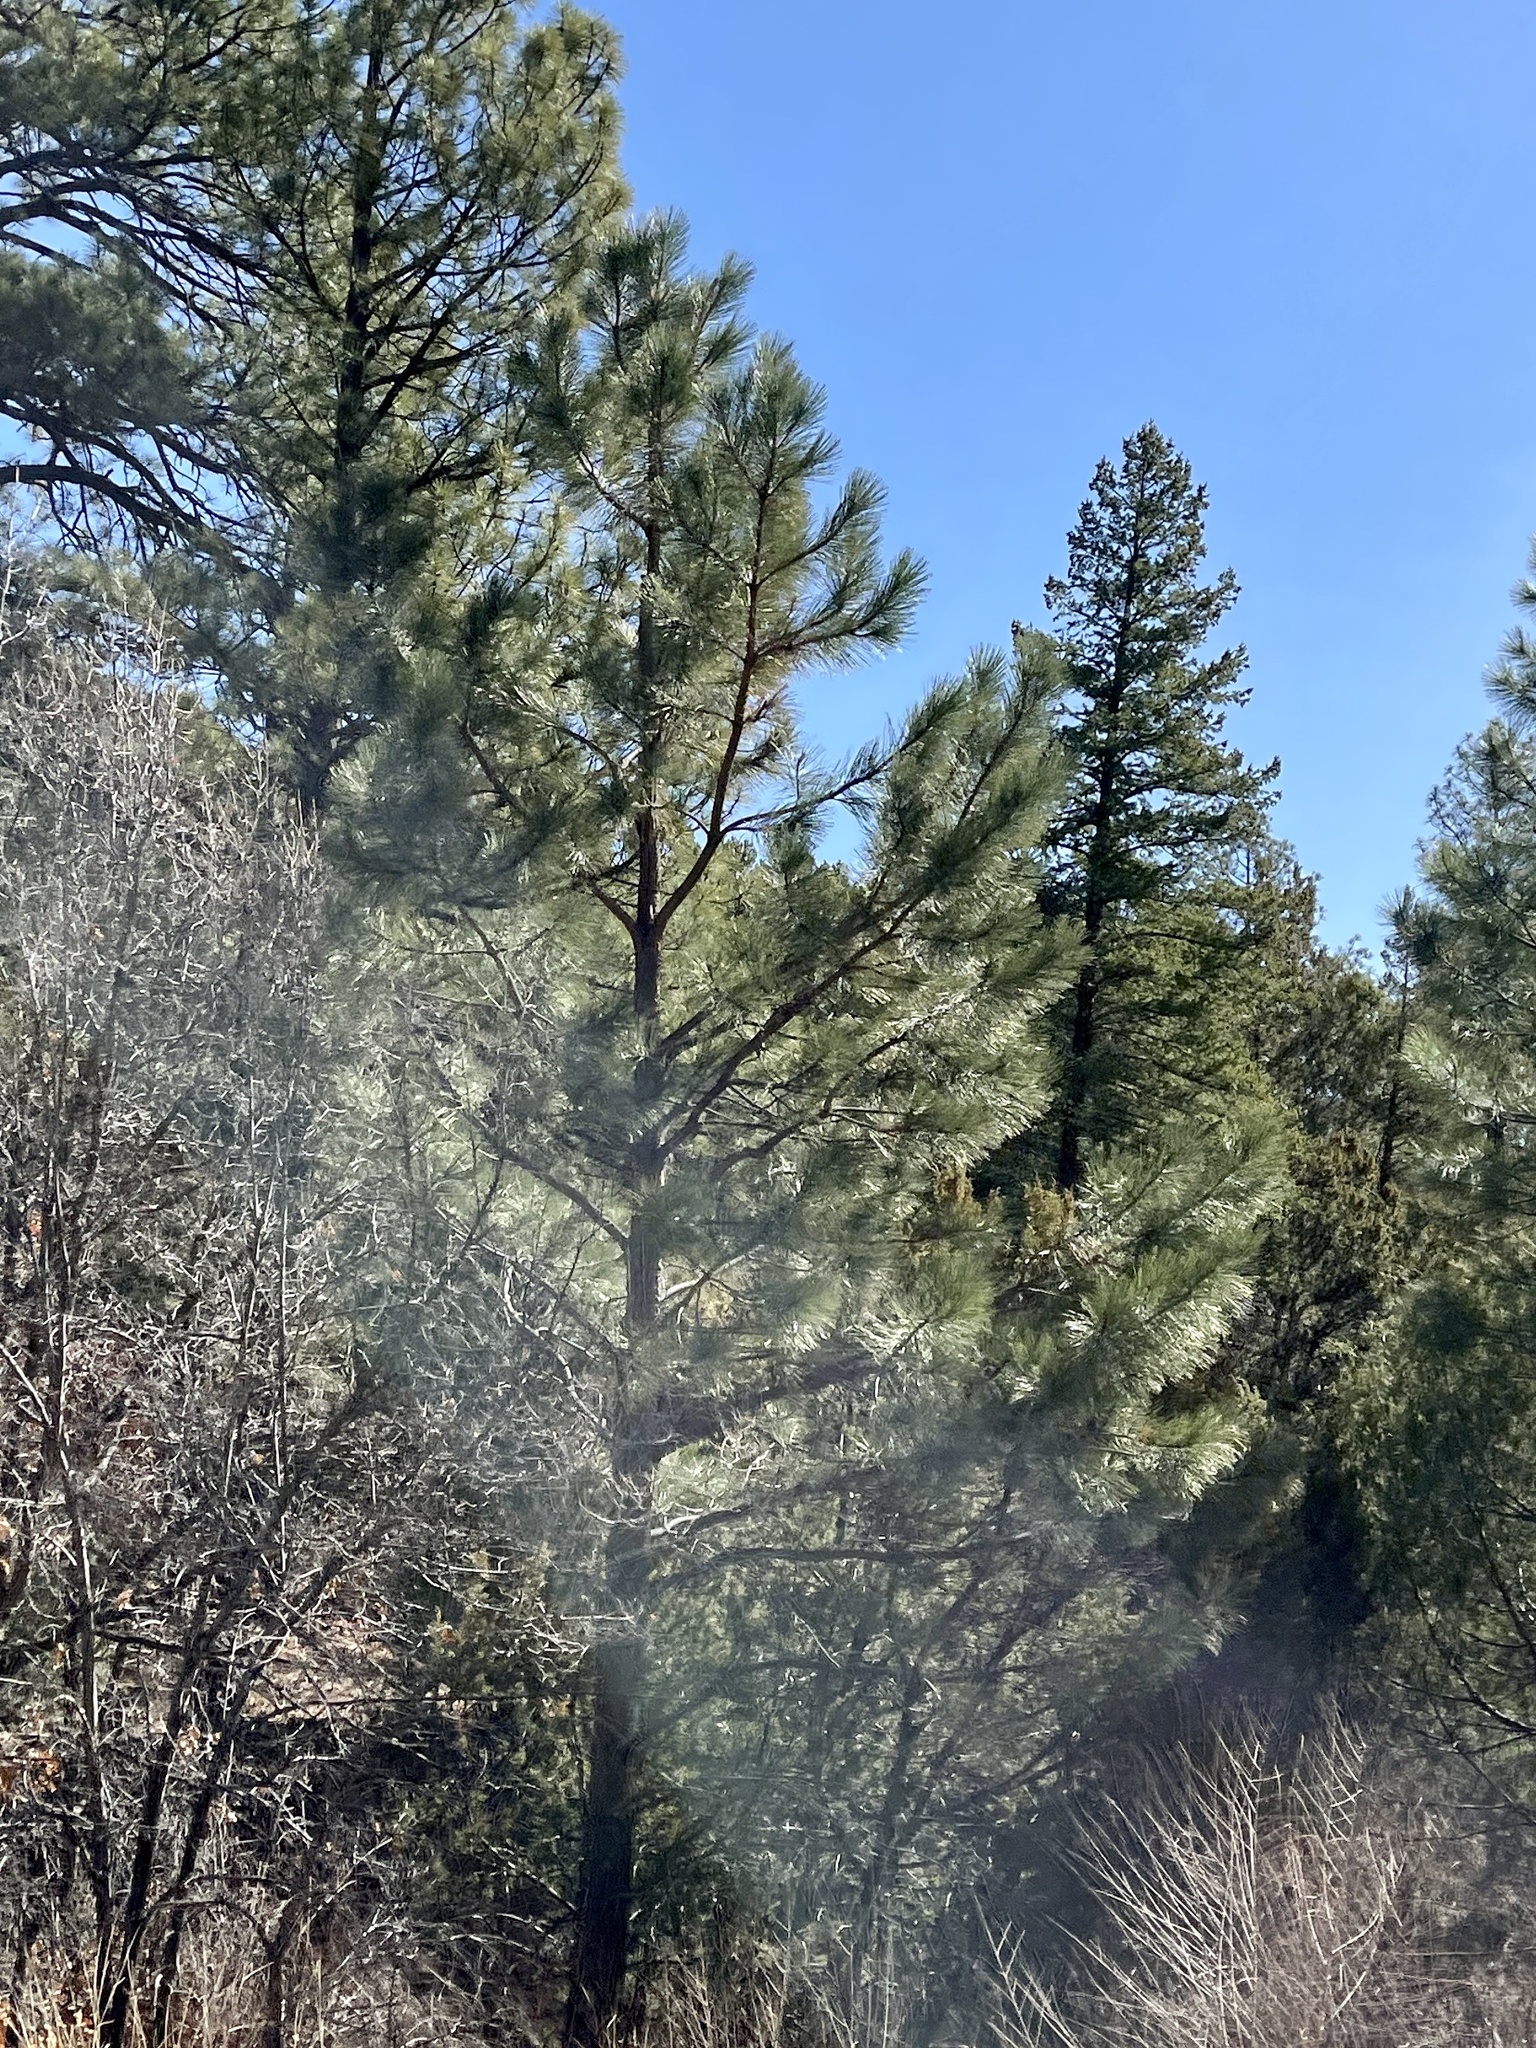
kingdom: Plantae
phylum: Tracheophyta
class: Pinopsida
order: Pinales
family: Pinaceae
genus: Pinus
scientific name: Pinus ponderosa
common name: Western yellow-pine
